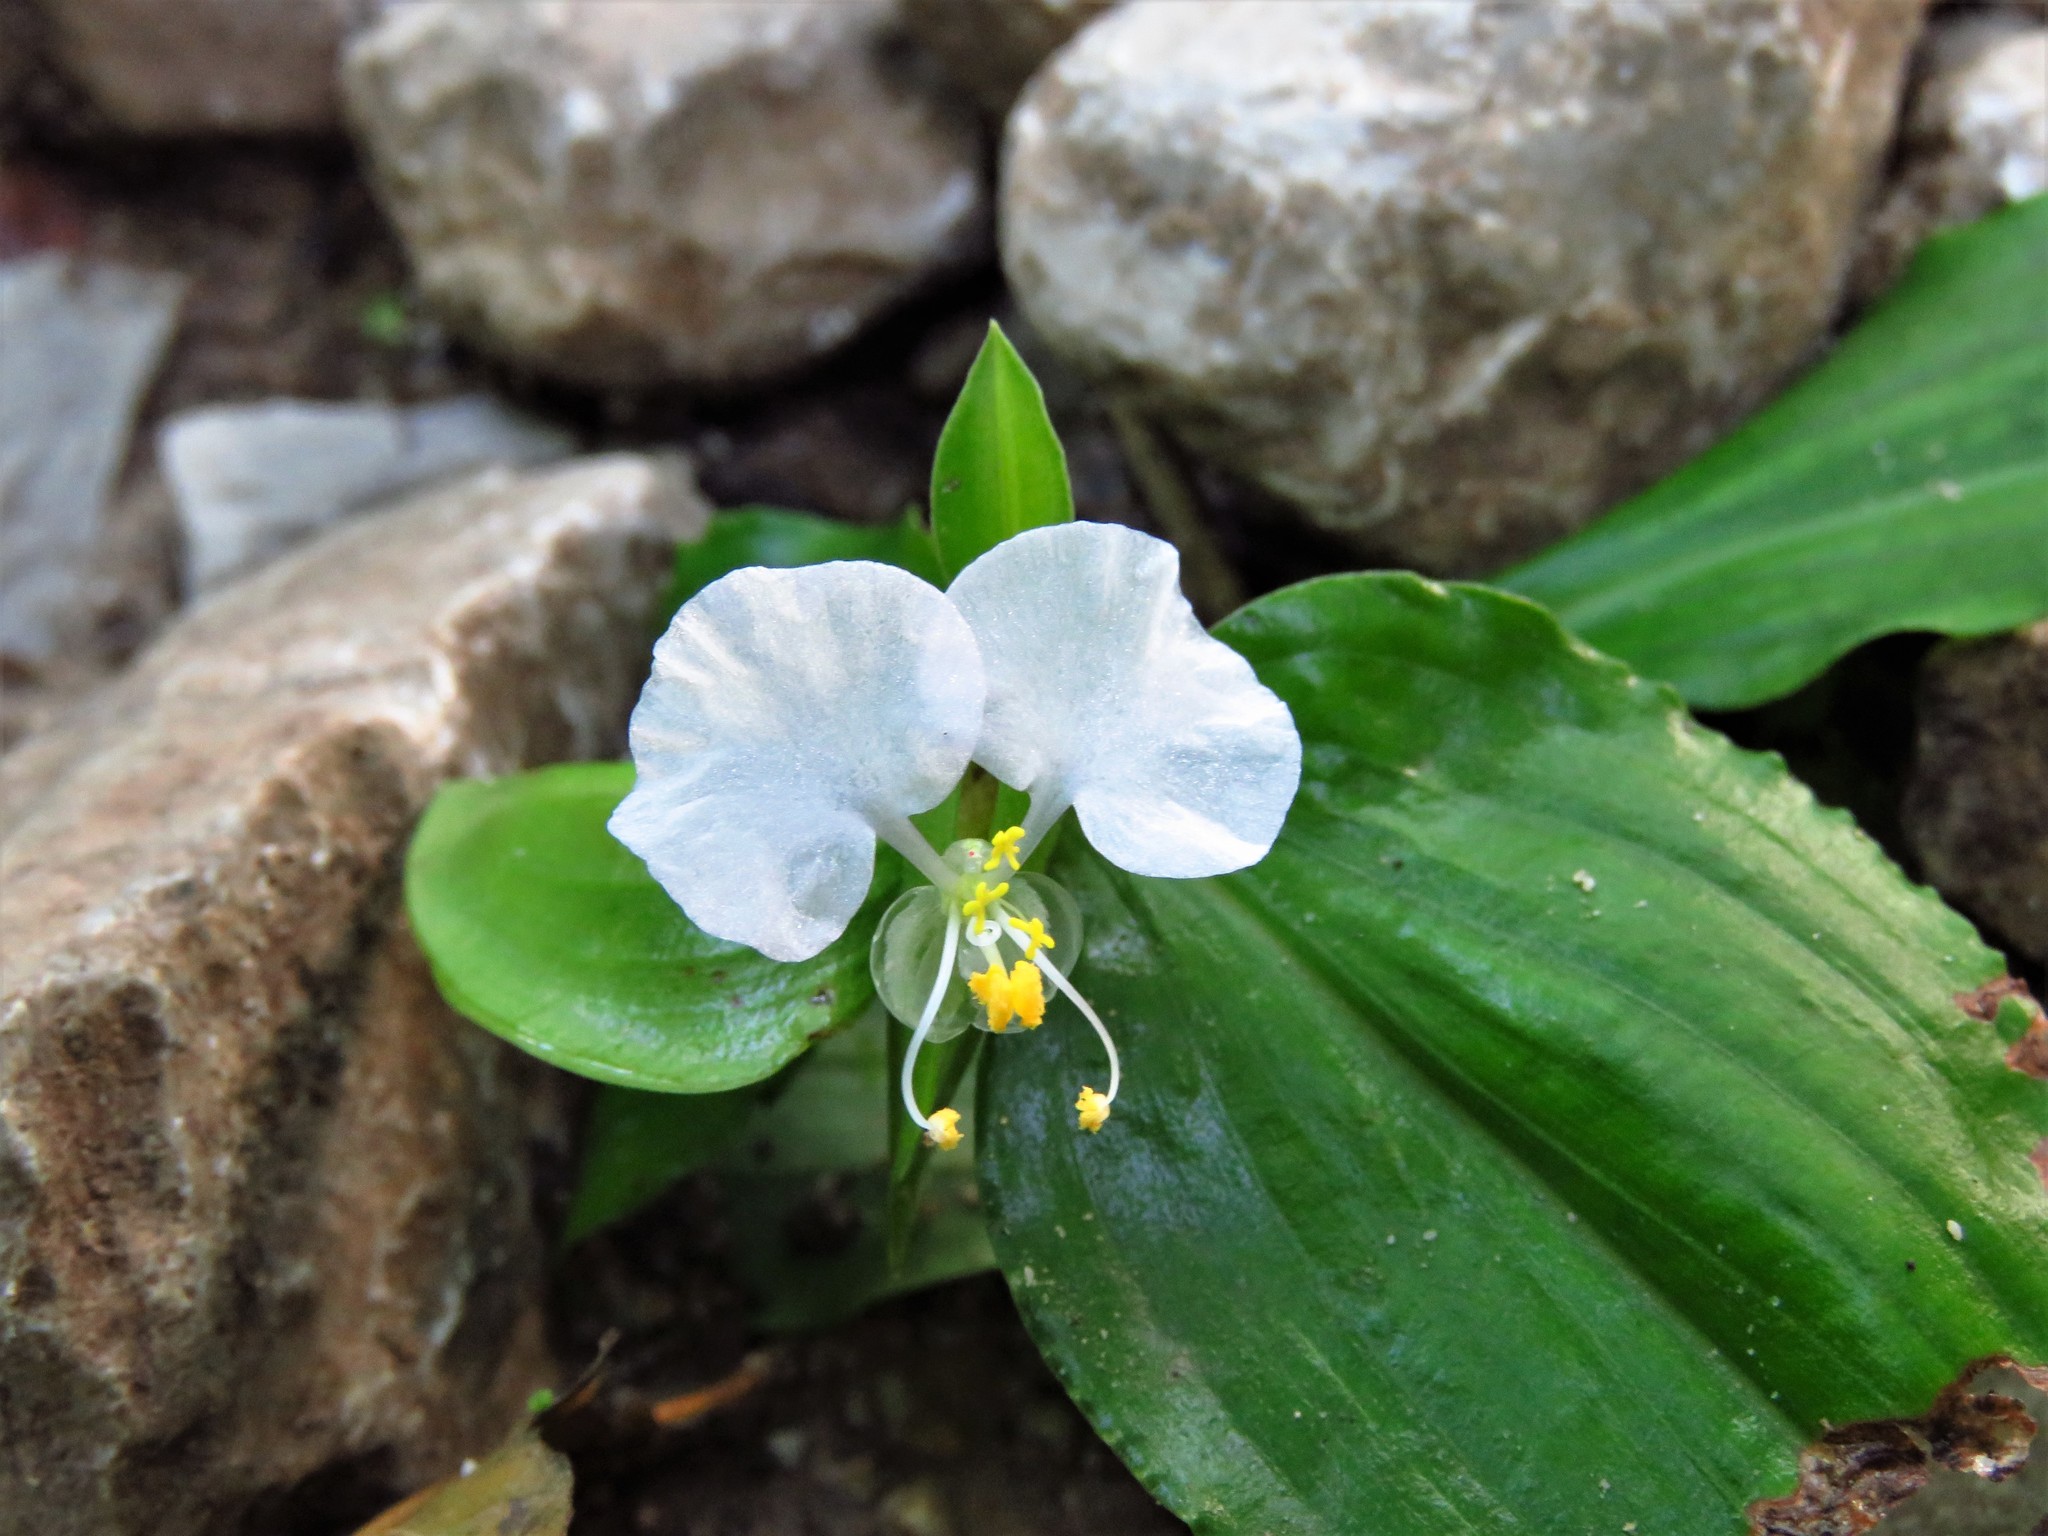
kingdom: Plantae
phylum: Tracheophyta
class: Liliopsida
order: Commelinales
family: Commelinaceae
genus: Commelina
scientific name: Commelina erecta
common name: Blousel blommetjie
